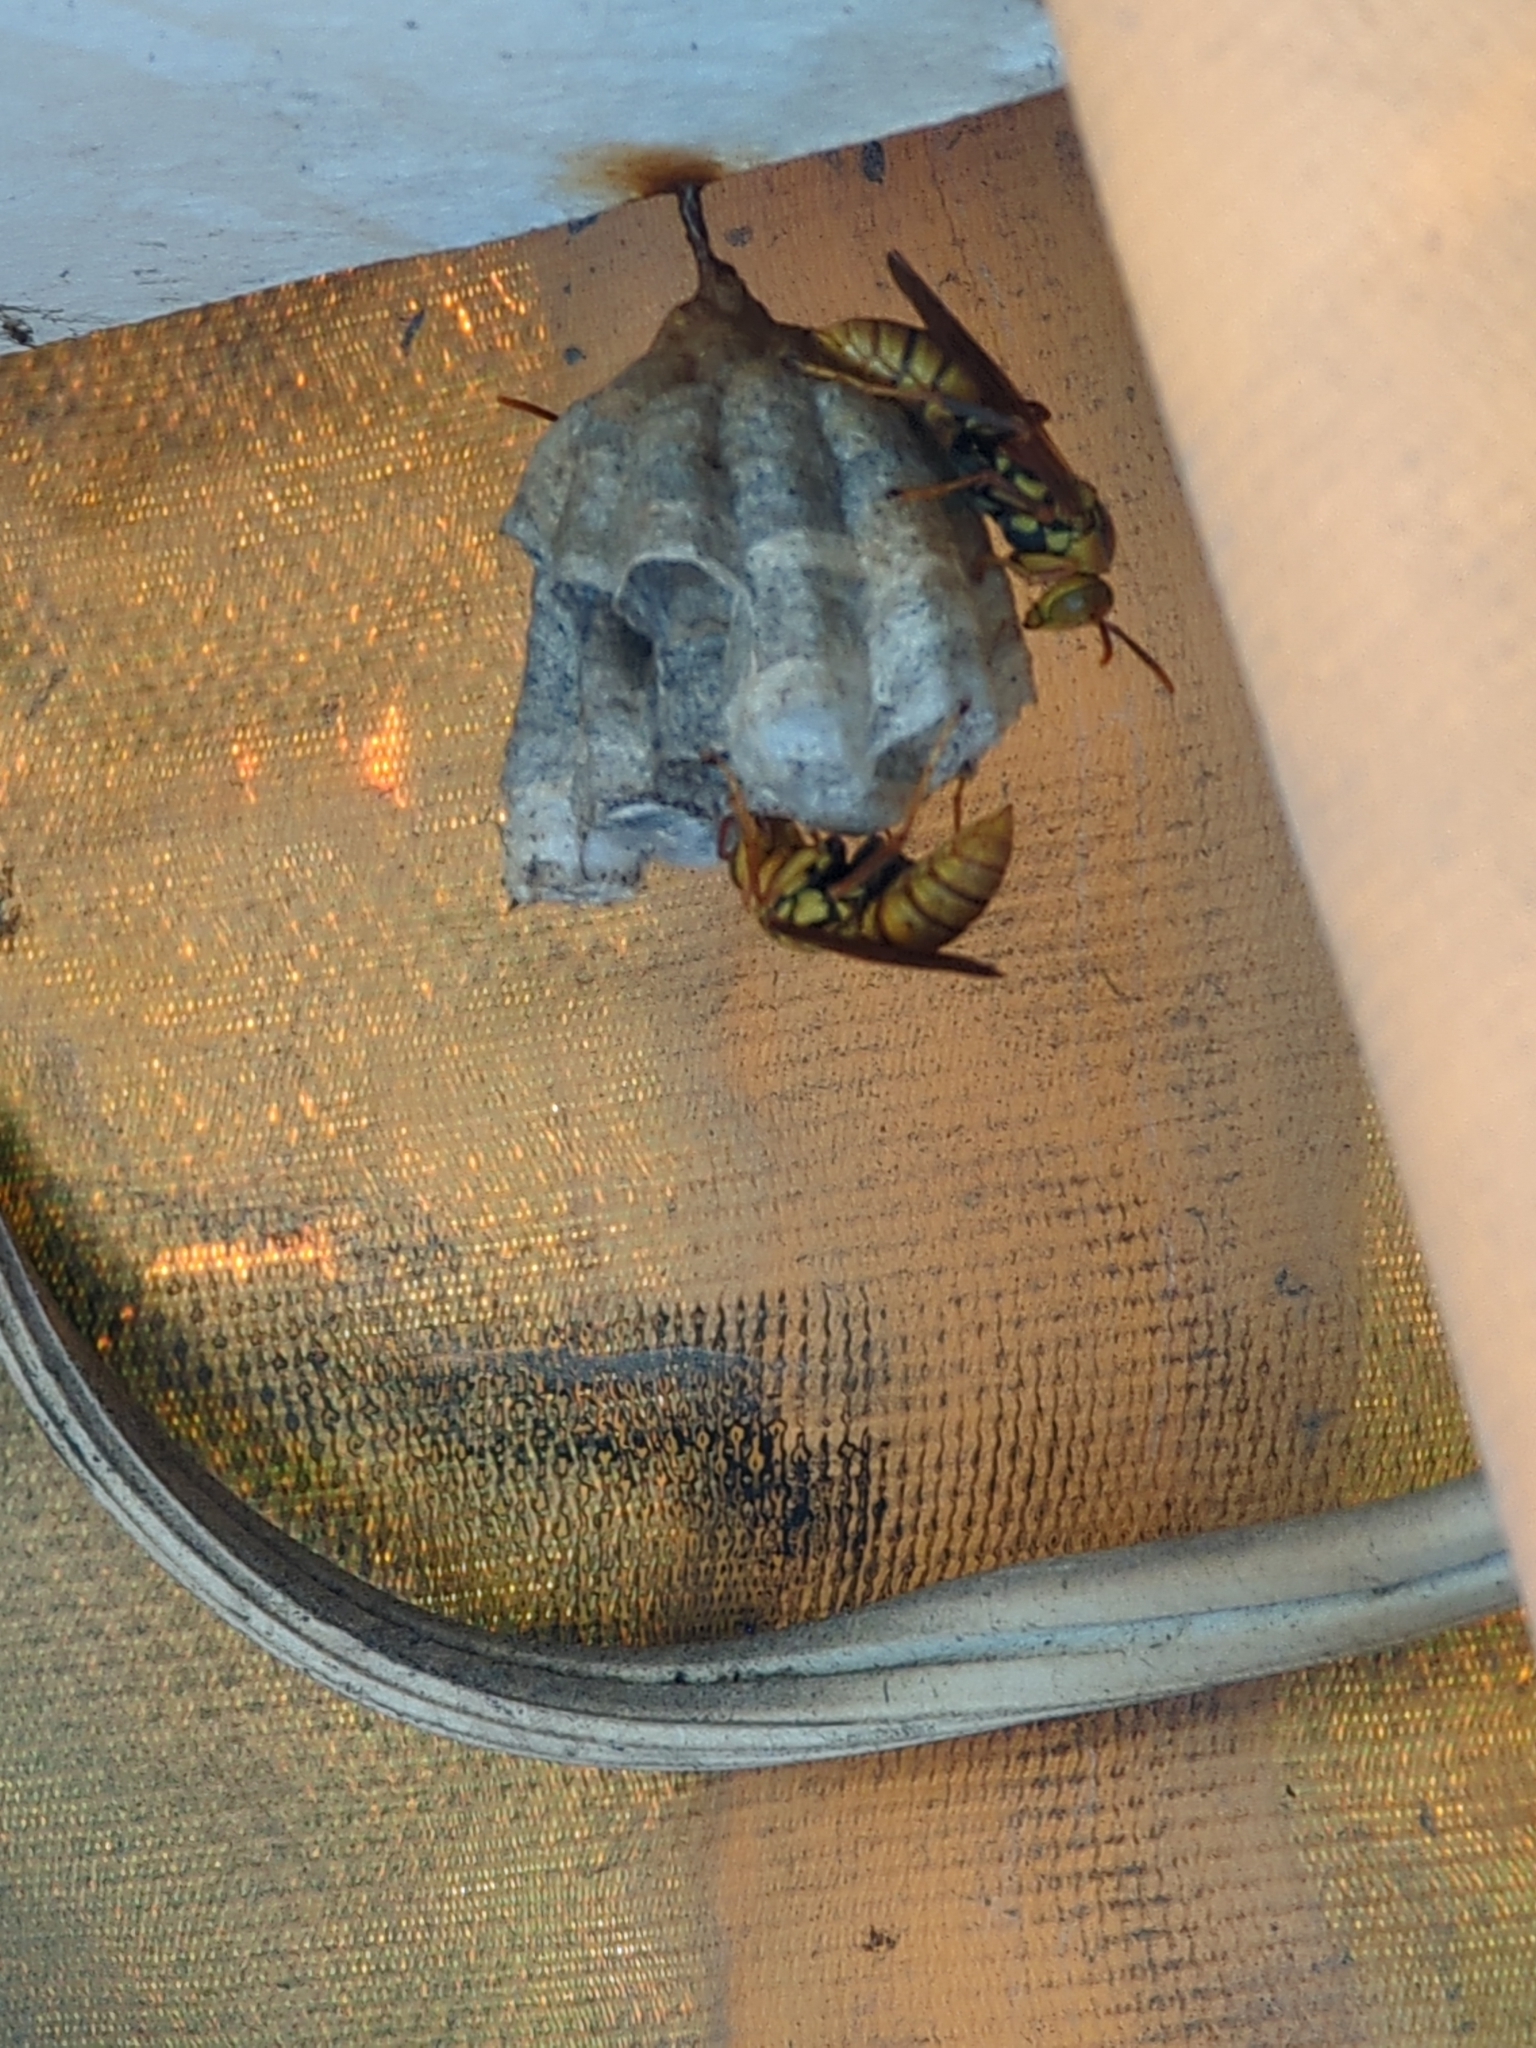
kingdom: Animalia
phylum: Arthropoda
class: Insecta
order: Hymenoptera
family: Eumenidae
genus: Polistes
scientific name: Polistes japonicus
